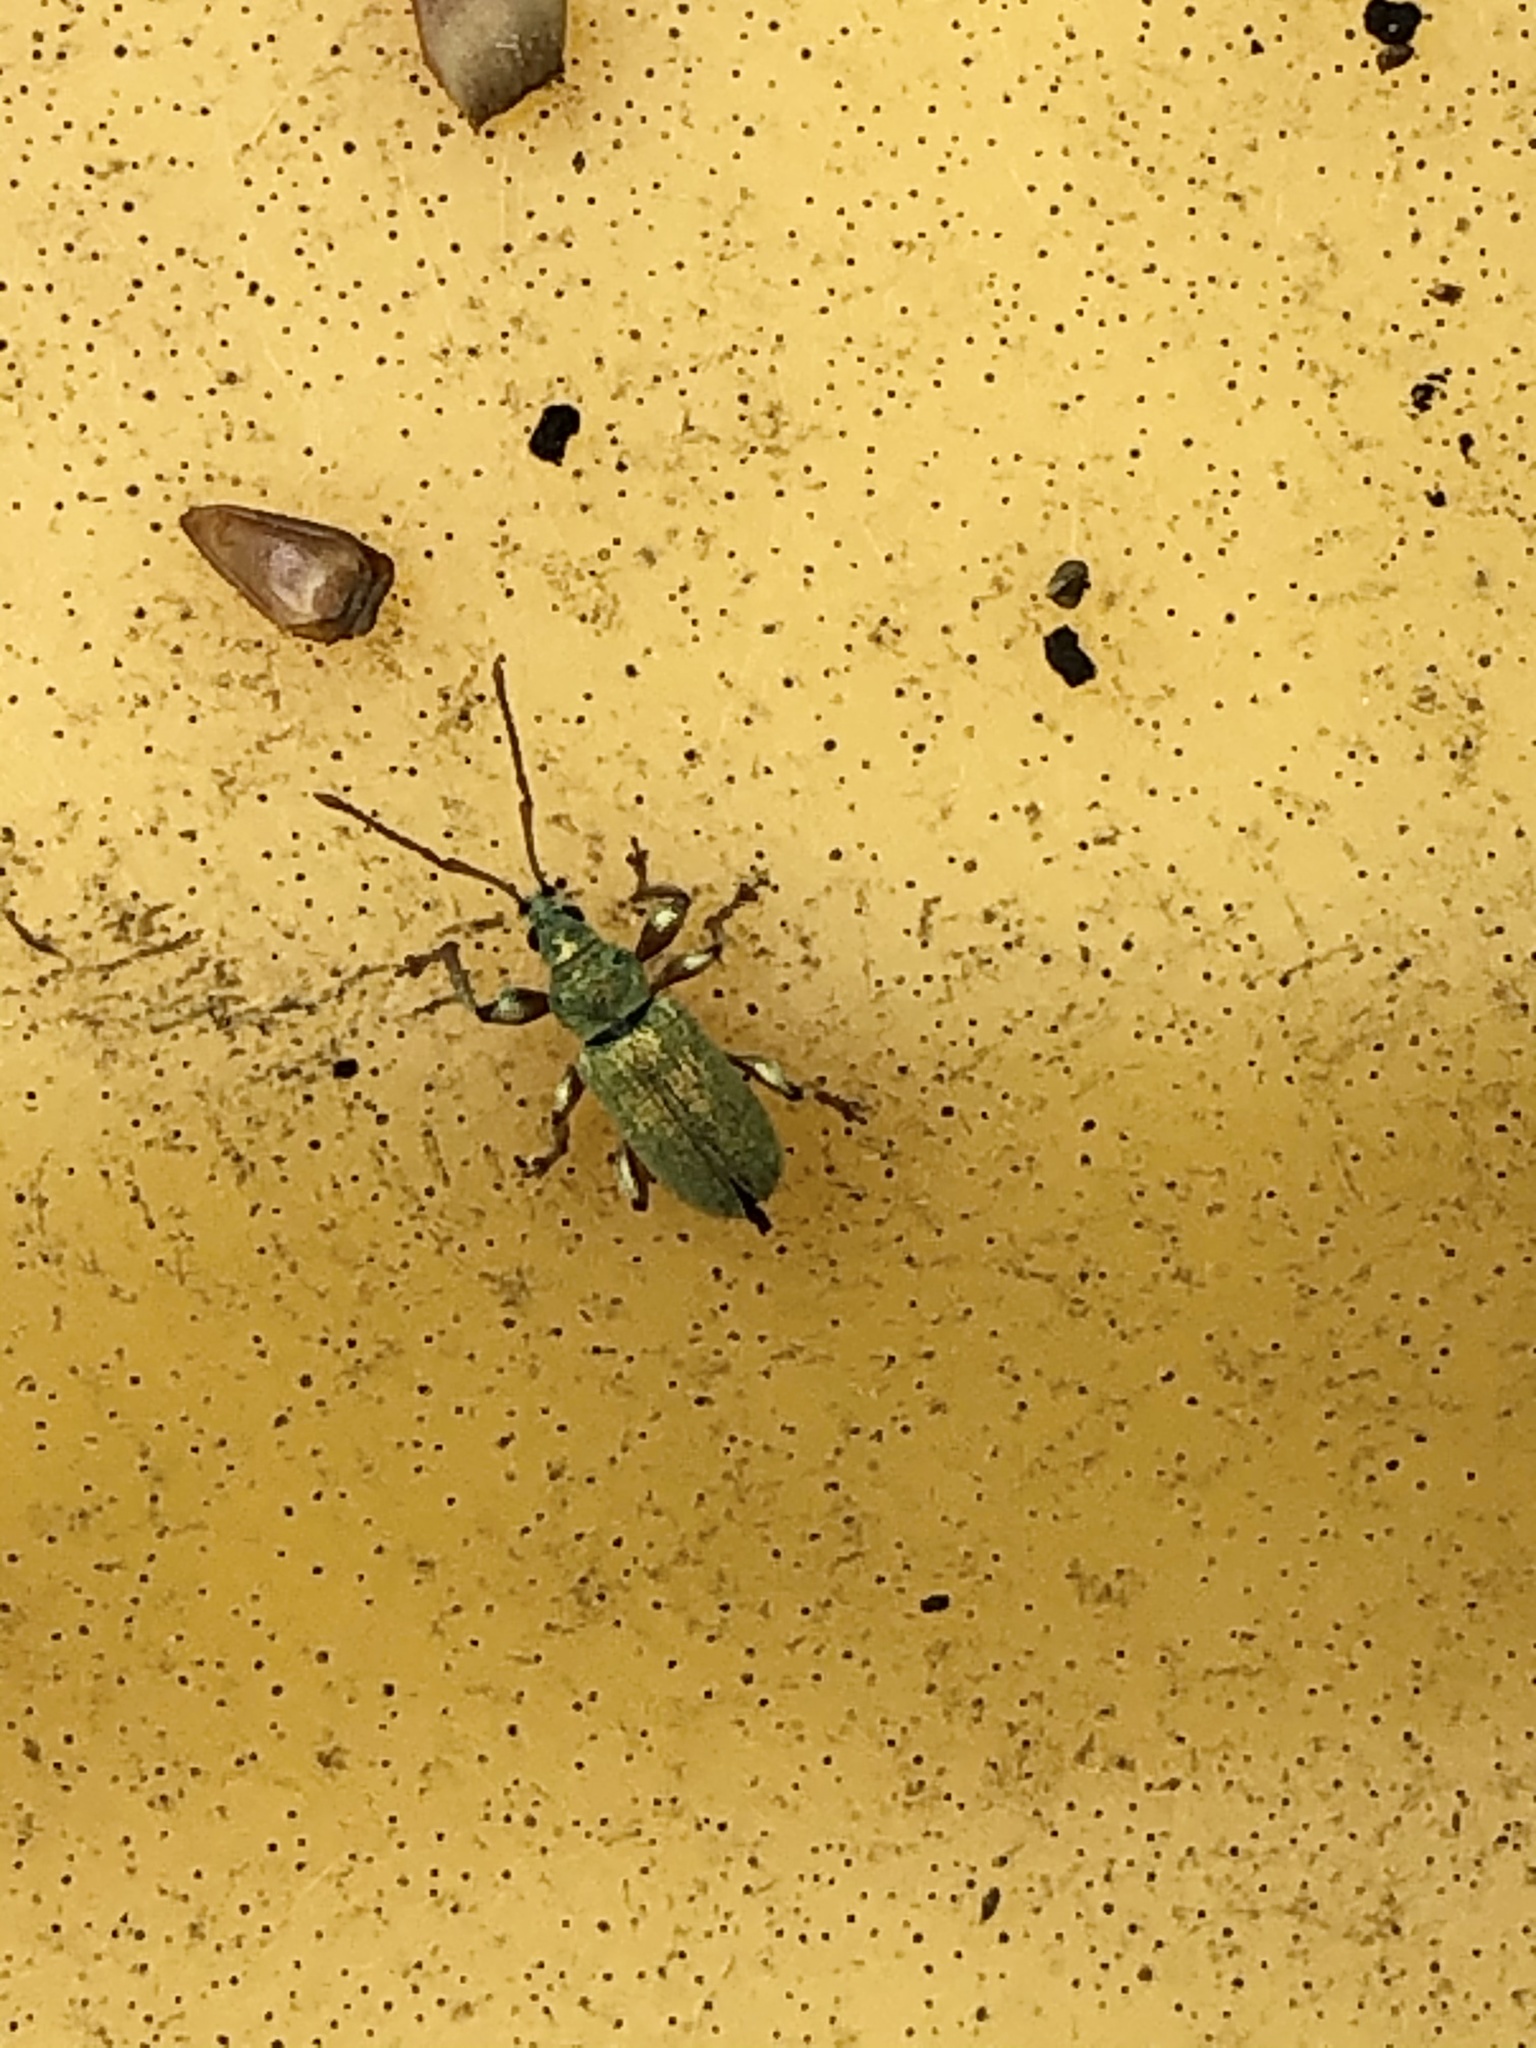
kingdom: Animalia
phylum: Arthropoda
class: Insecta
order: Coleoptera
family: Curculionidae
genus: Phyllobius
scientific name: Phyllobius argentatus
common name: Silver-green leaf weevil
